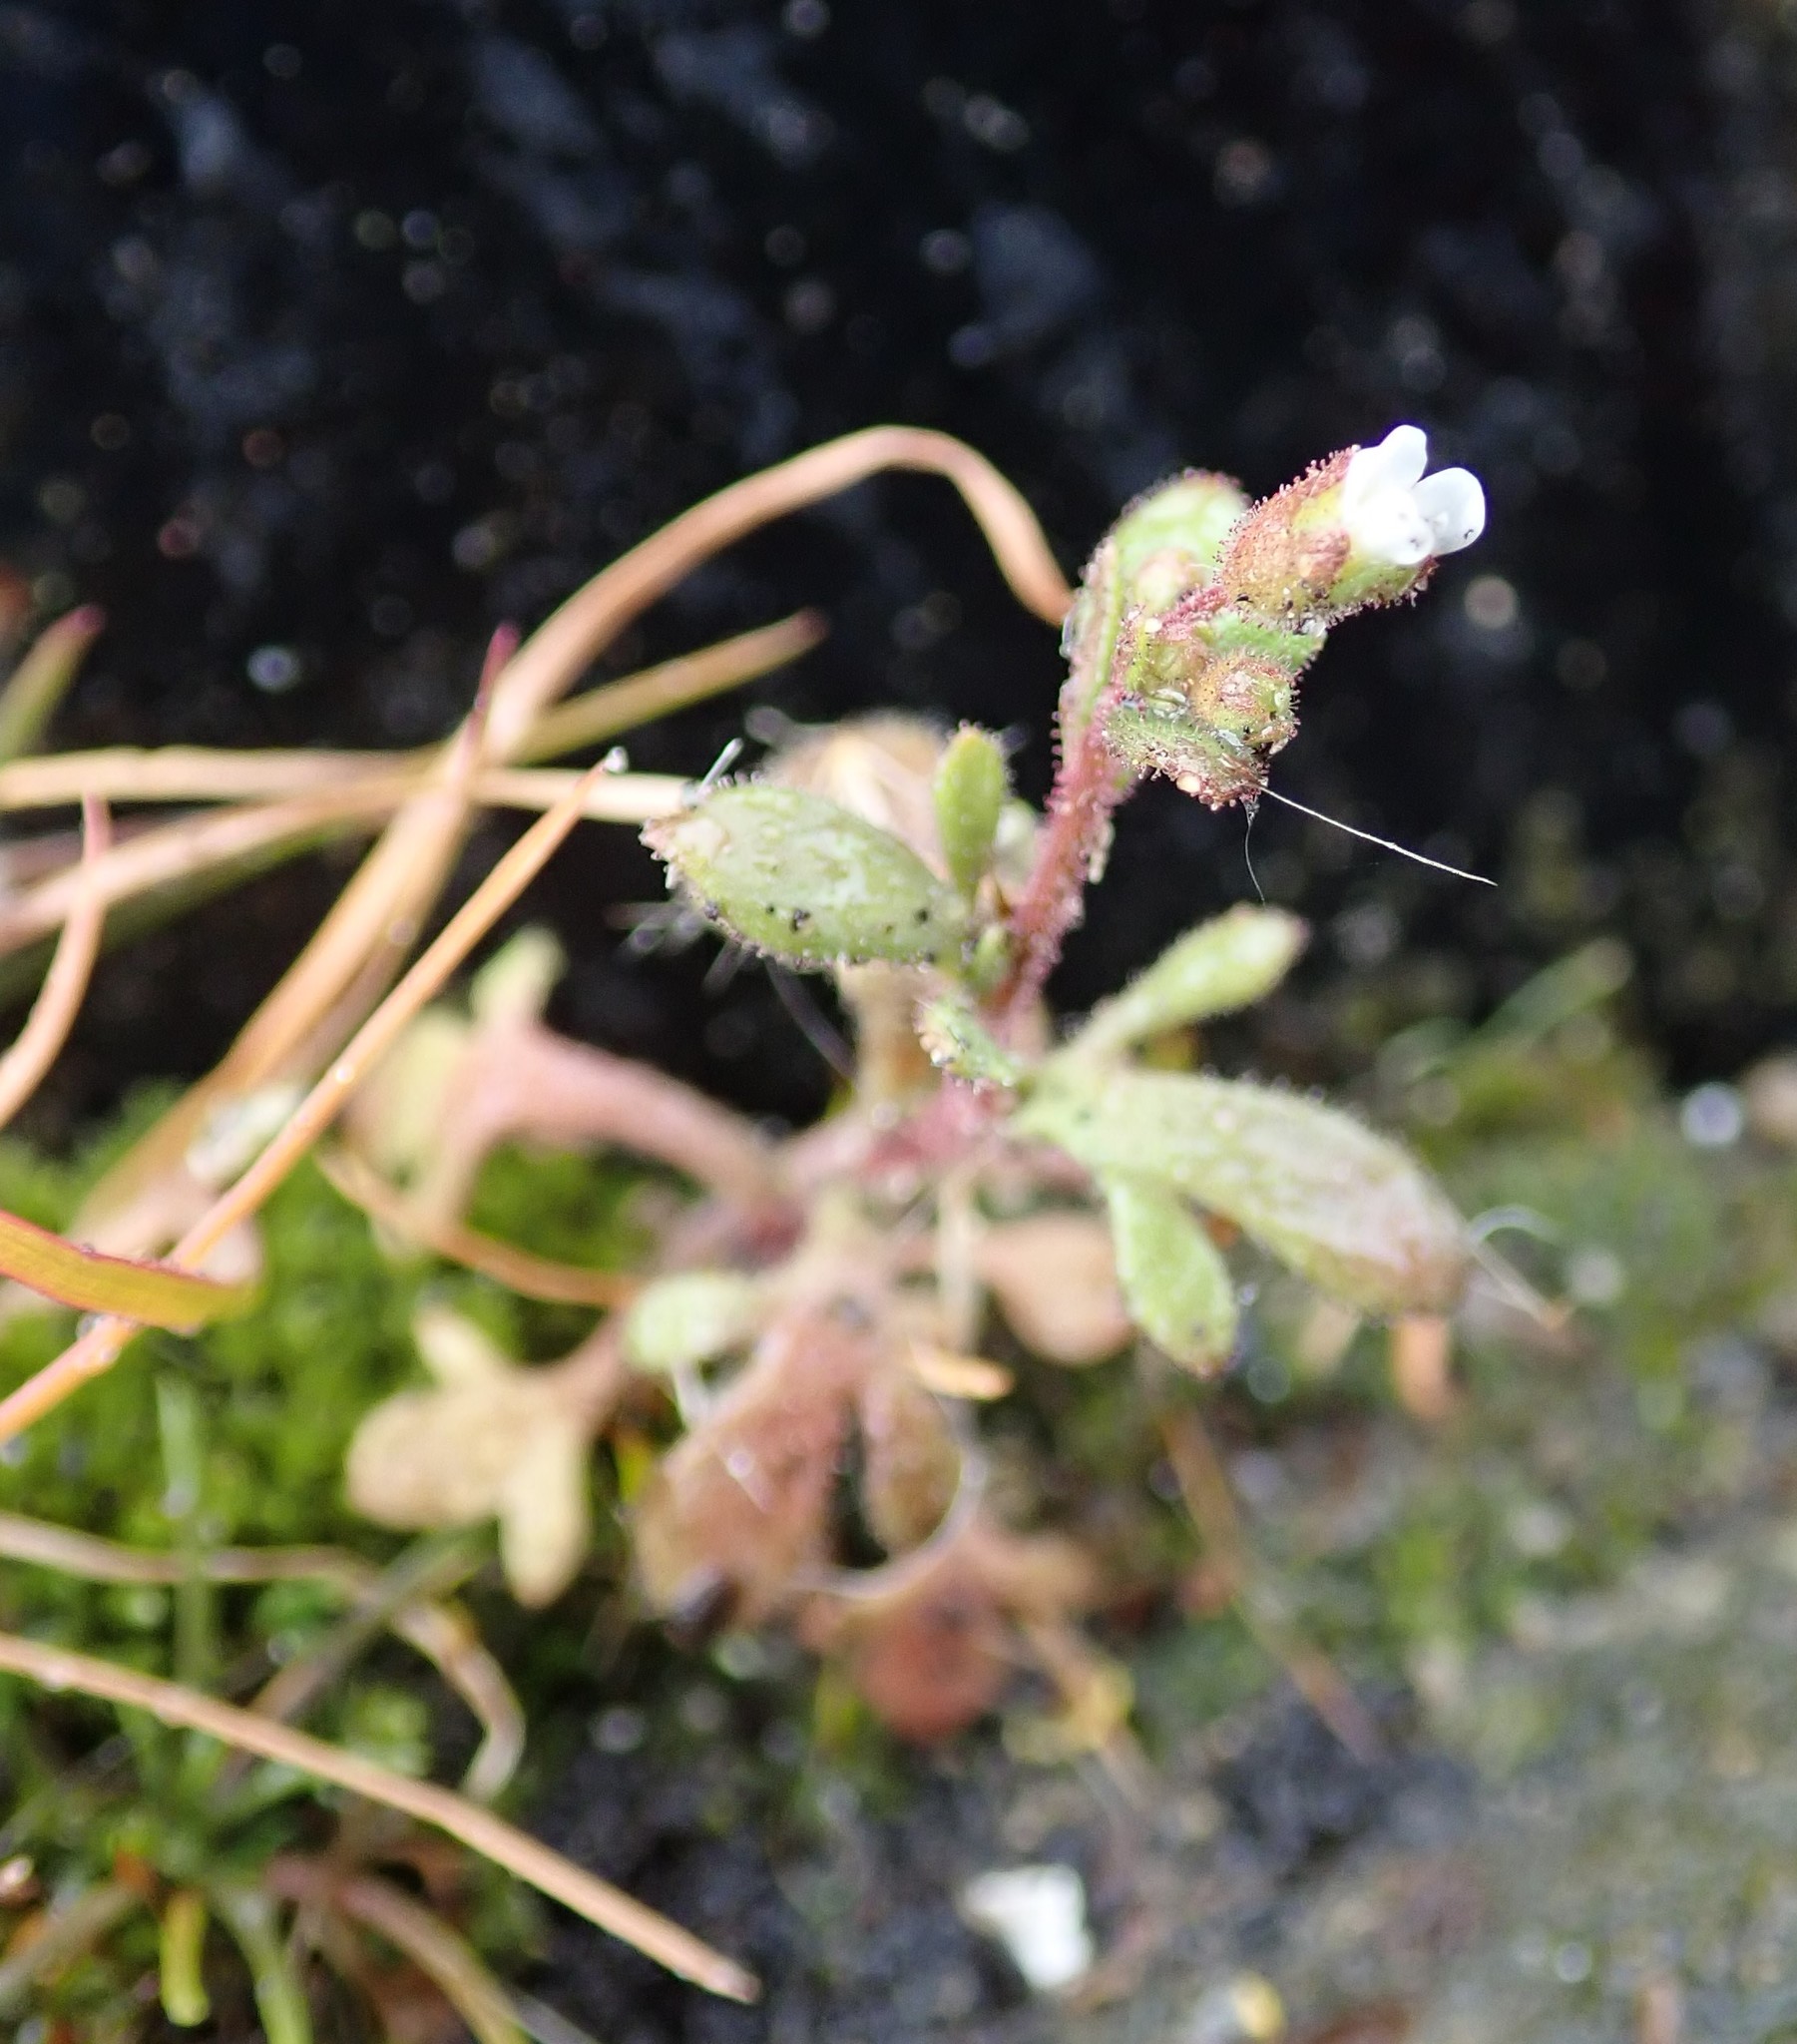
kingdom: Plantae
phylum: Tracheophyta
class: Magnoliopsida
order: Saxifragales
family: Saxifragaceae
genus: Saxifraga
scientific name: Saxifraga tridactylites
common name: Rue-leaved saxifrage
